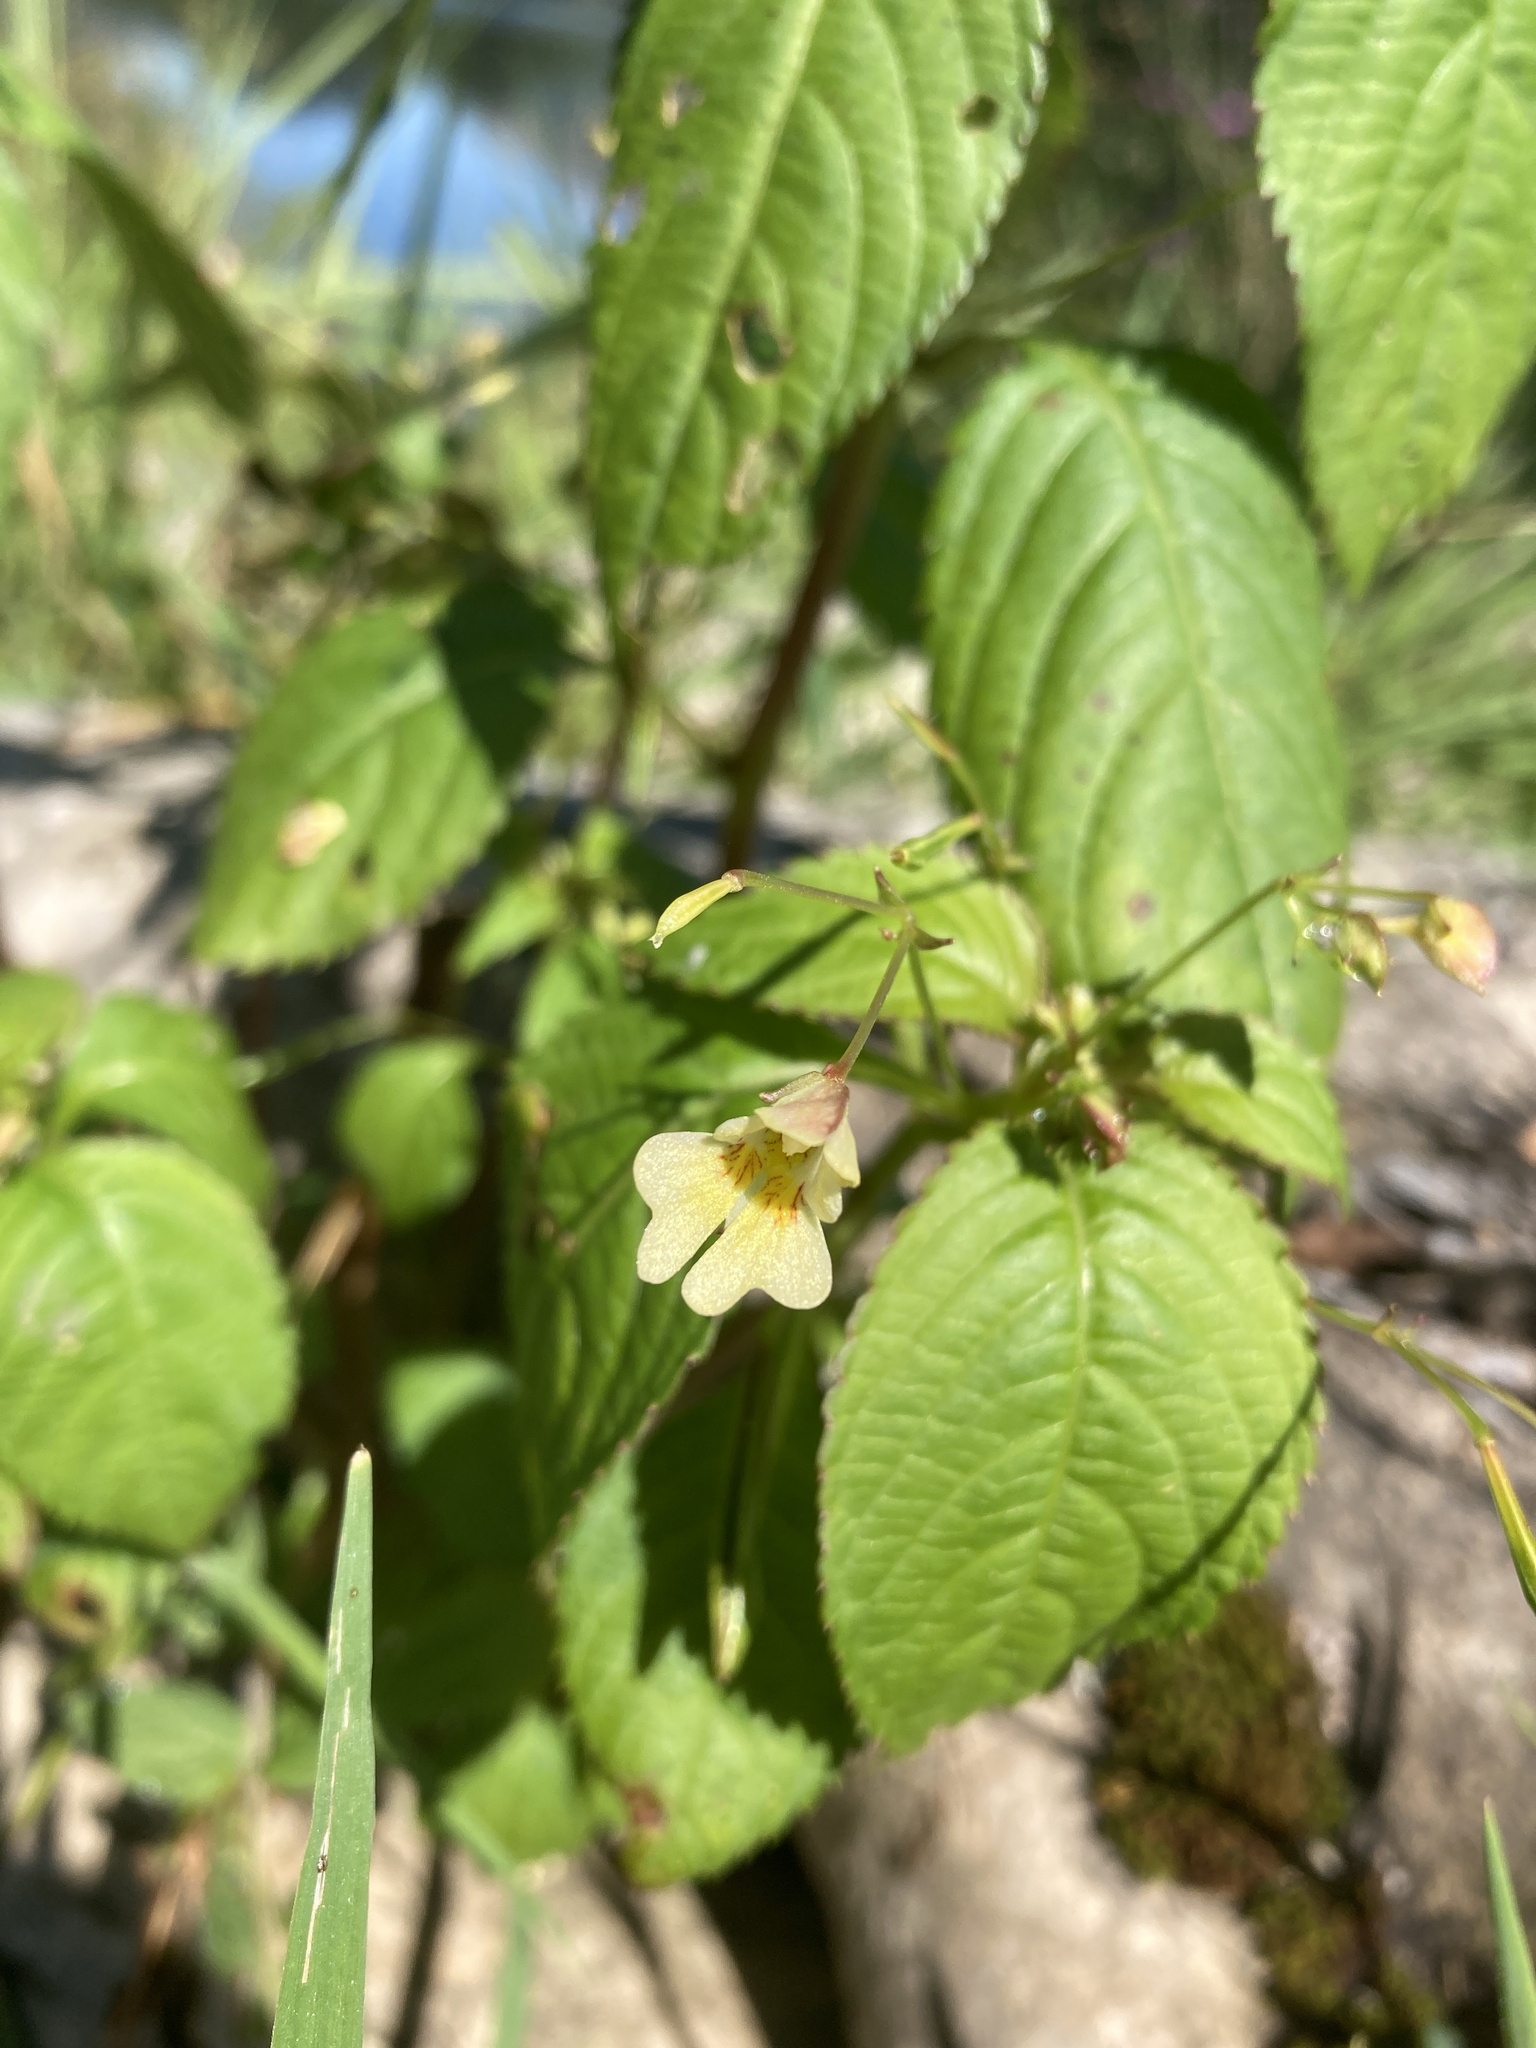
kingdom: Plantae
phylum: Tracheophyta
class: Magnoliopsida
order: Ericales
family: Balsaminaceae
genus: Impatiens
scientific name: Impatiens parviflora
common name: Small balsam
